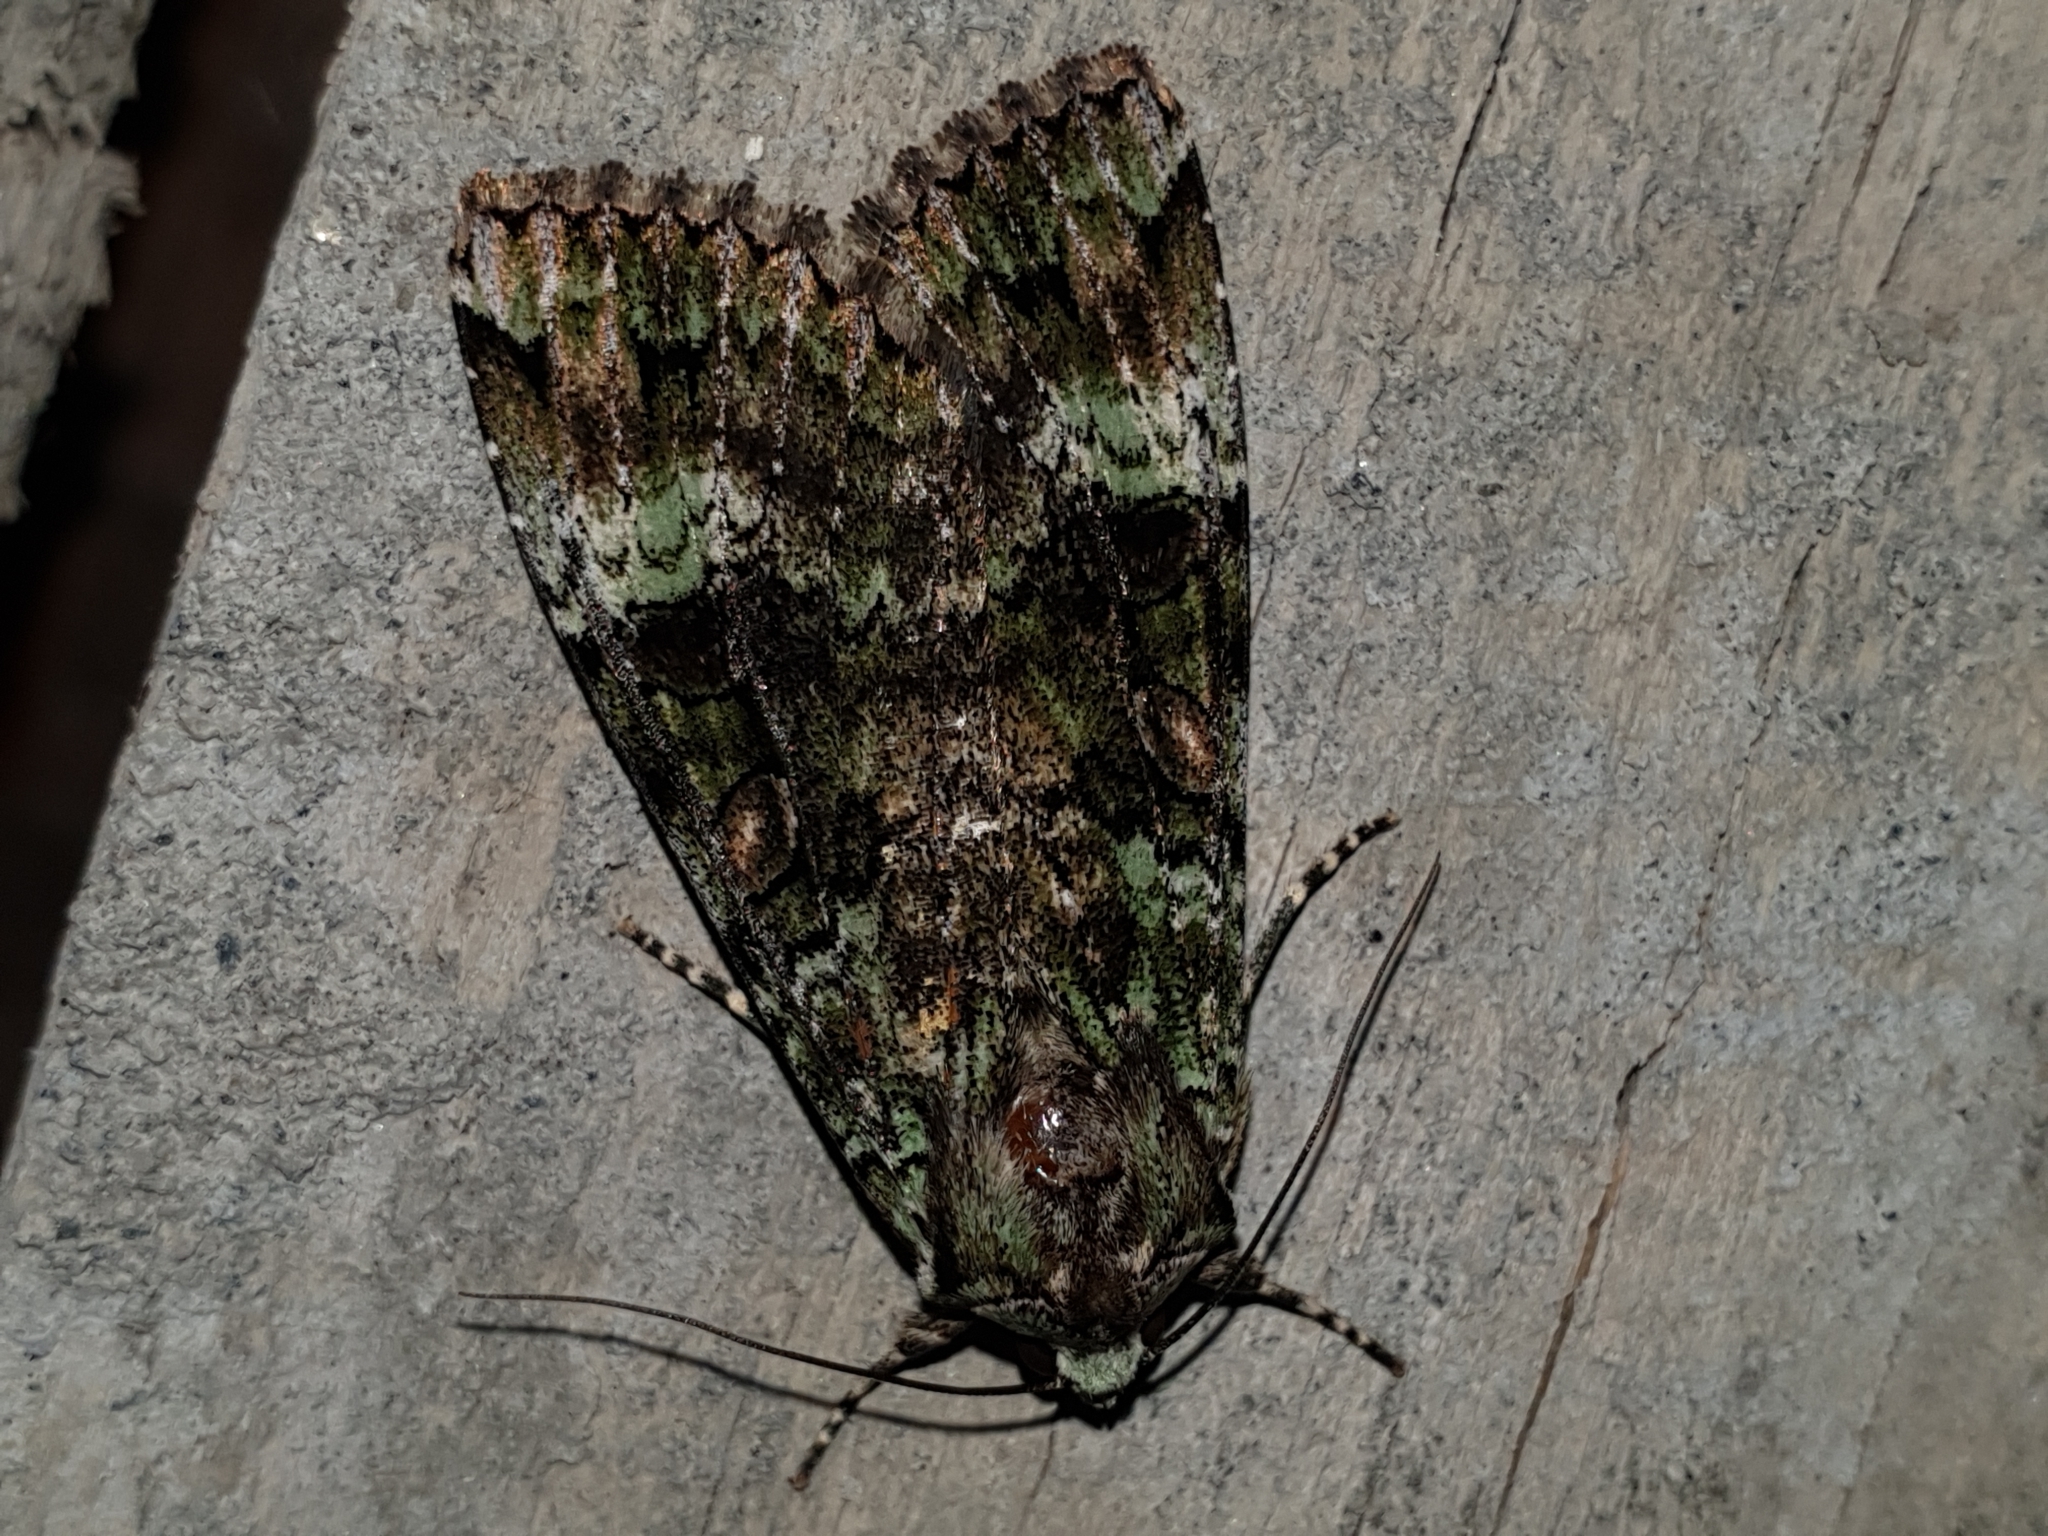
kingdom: Animalia
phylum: Arthropoda
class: Insecta
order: Lepidoptera
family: Noctuidae
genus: Anaplectoides
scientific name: Anaplectoides prasina
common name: Green arches
